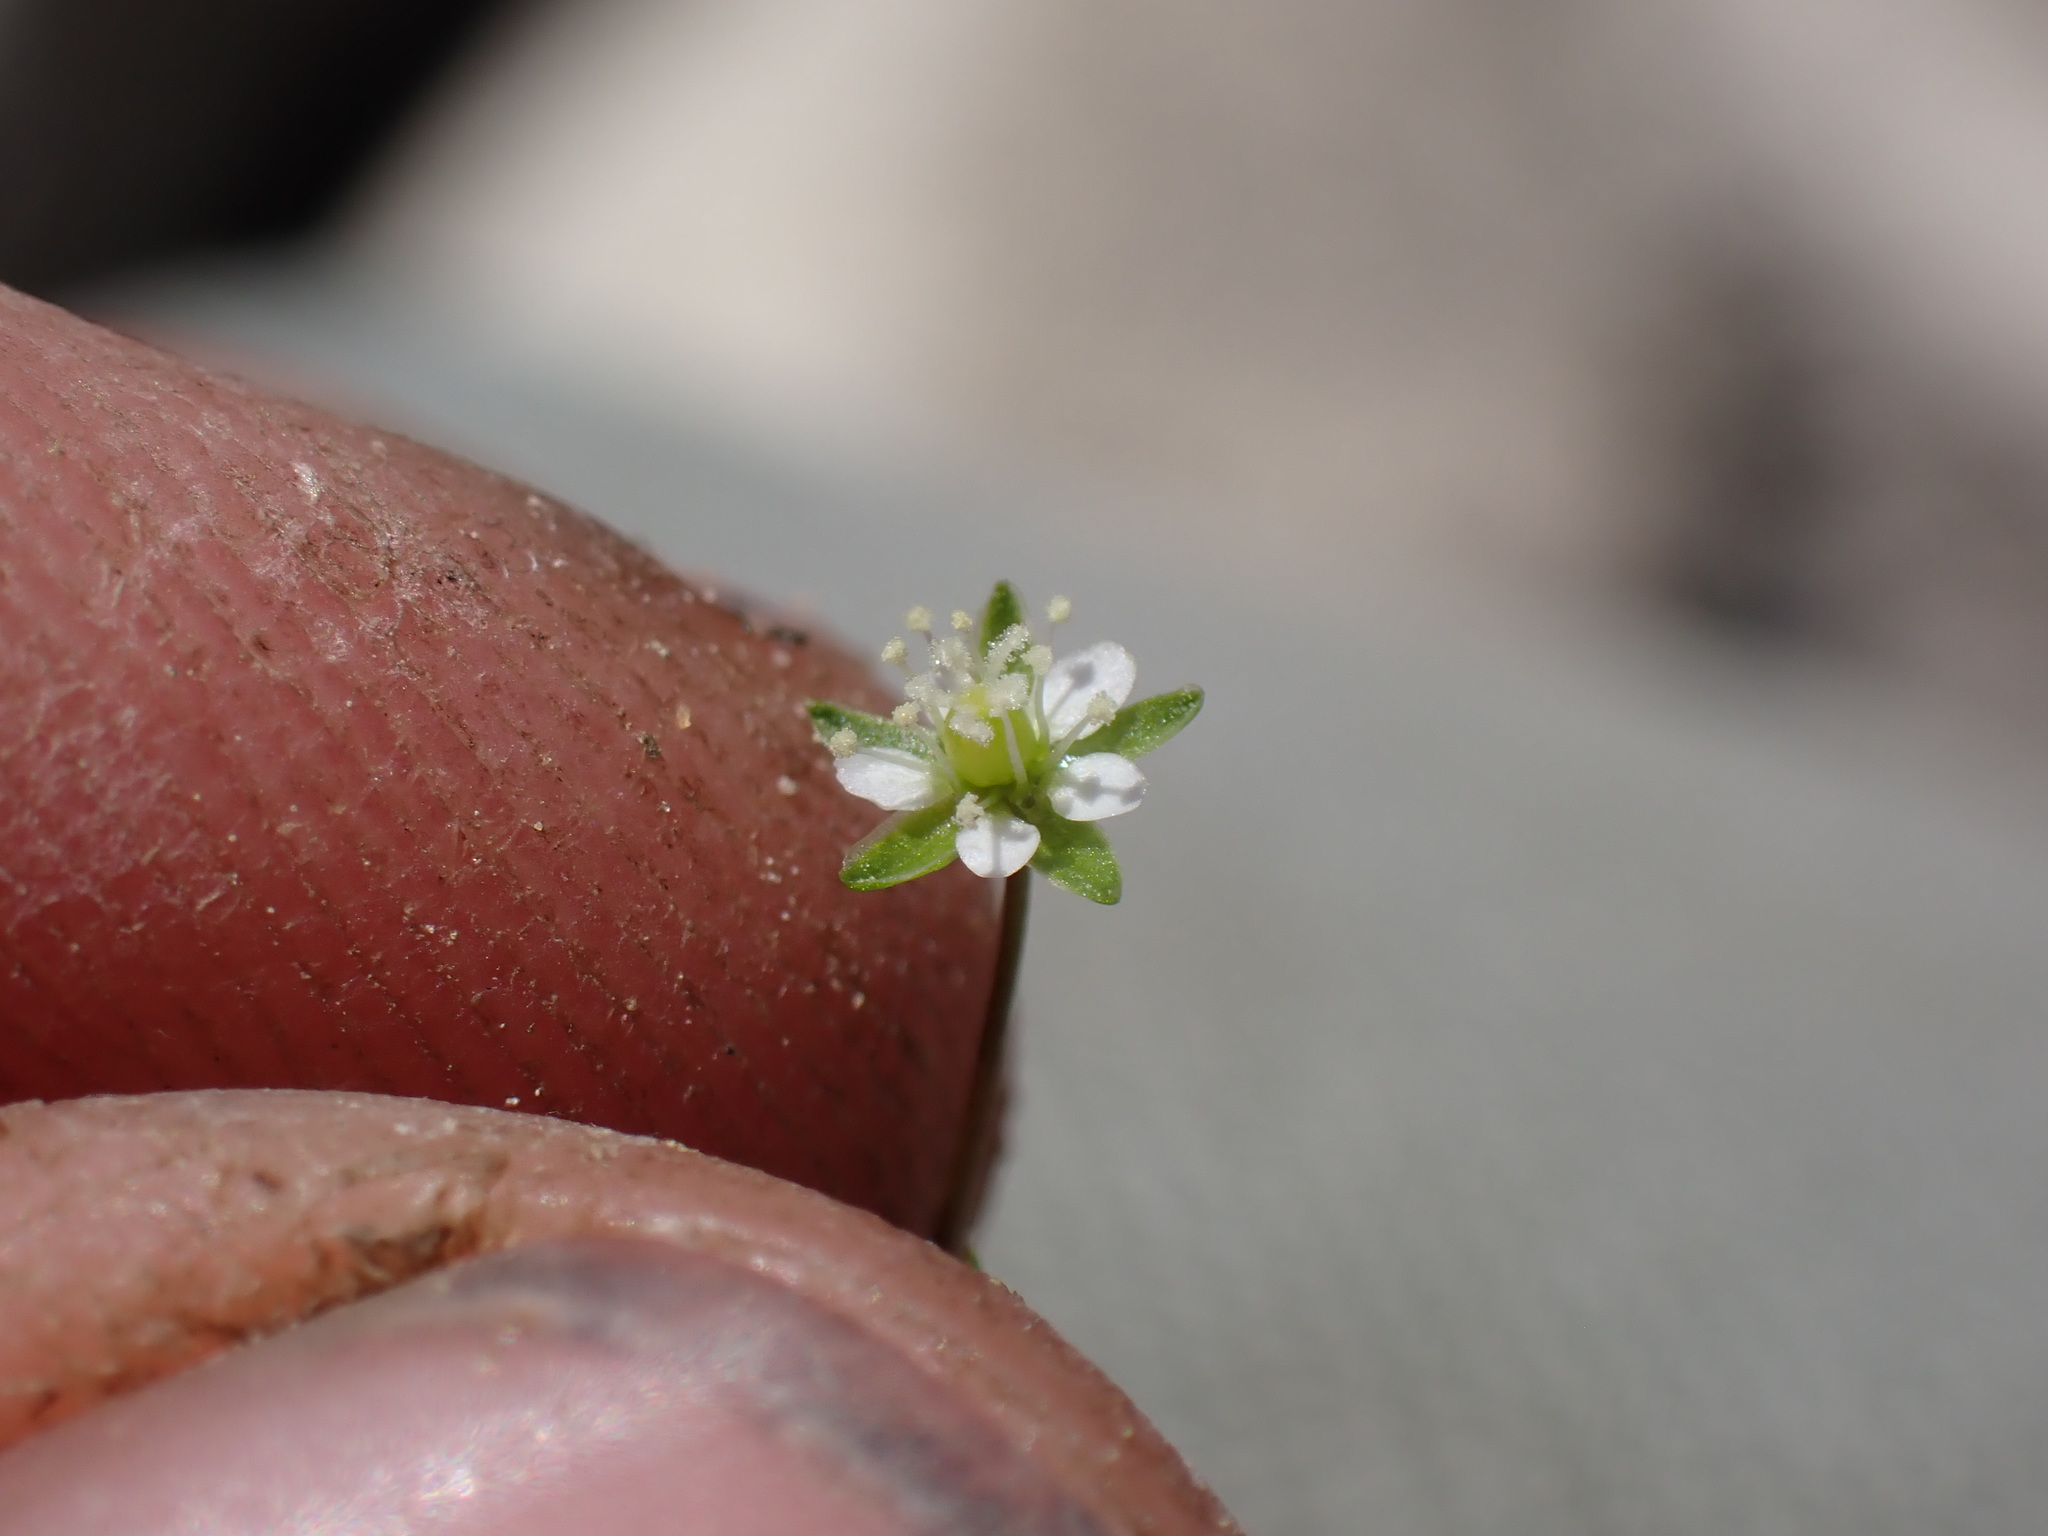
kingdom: Plantae
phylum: Tracheophyta
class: Magnoliopsida
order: Caryophyllales
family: Caryophyllaceae
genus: Sagina
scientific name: Sagina saginoides
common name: Alpine pearlwort
